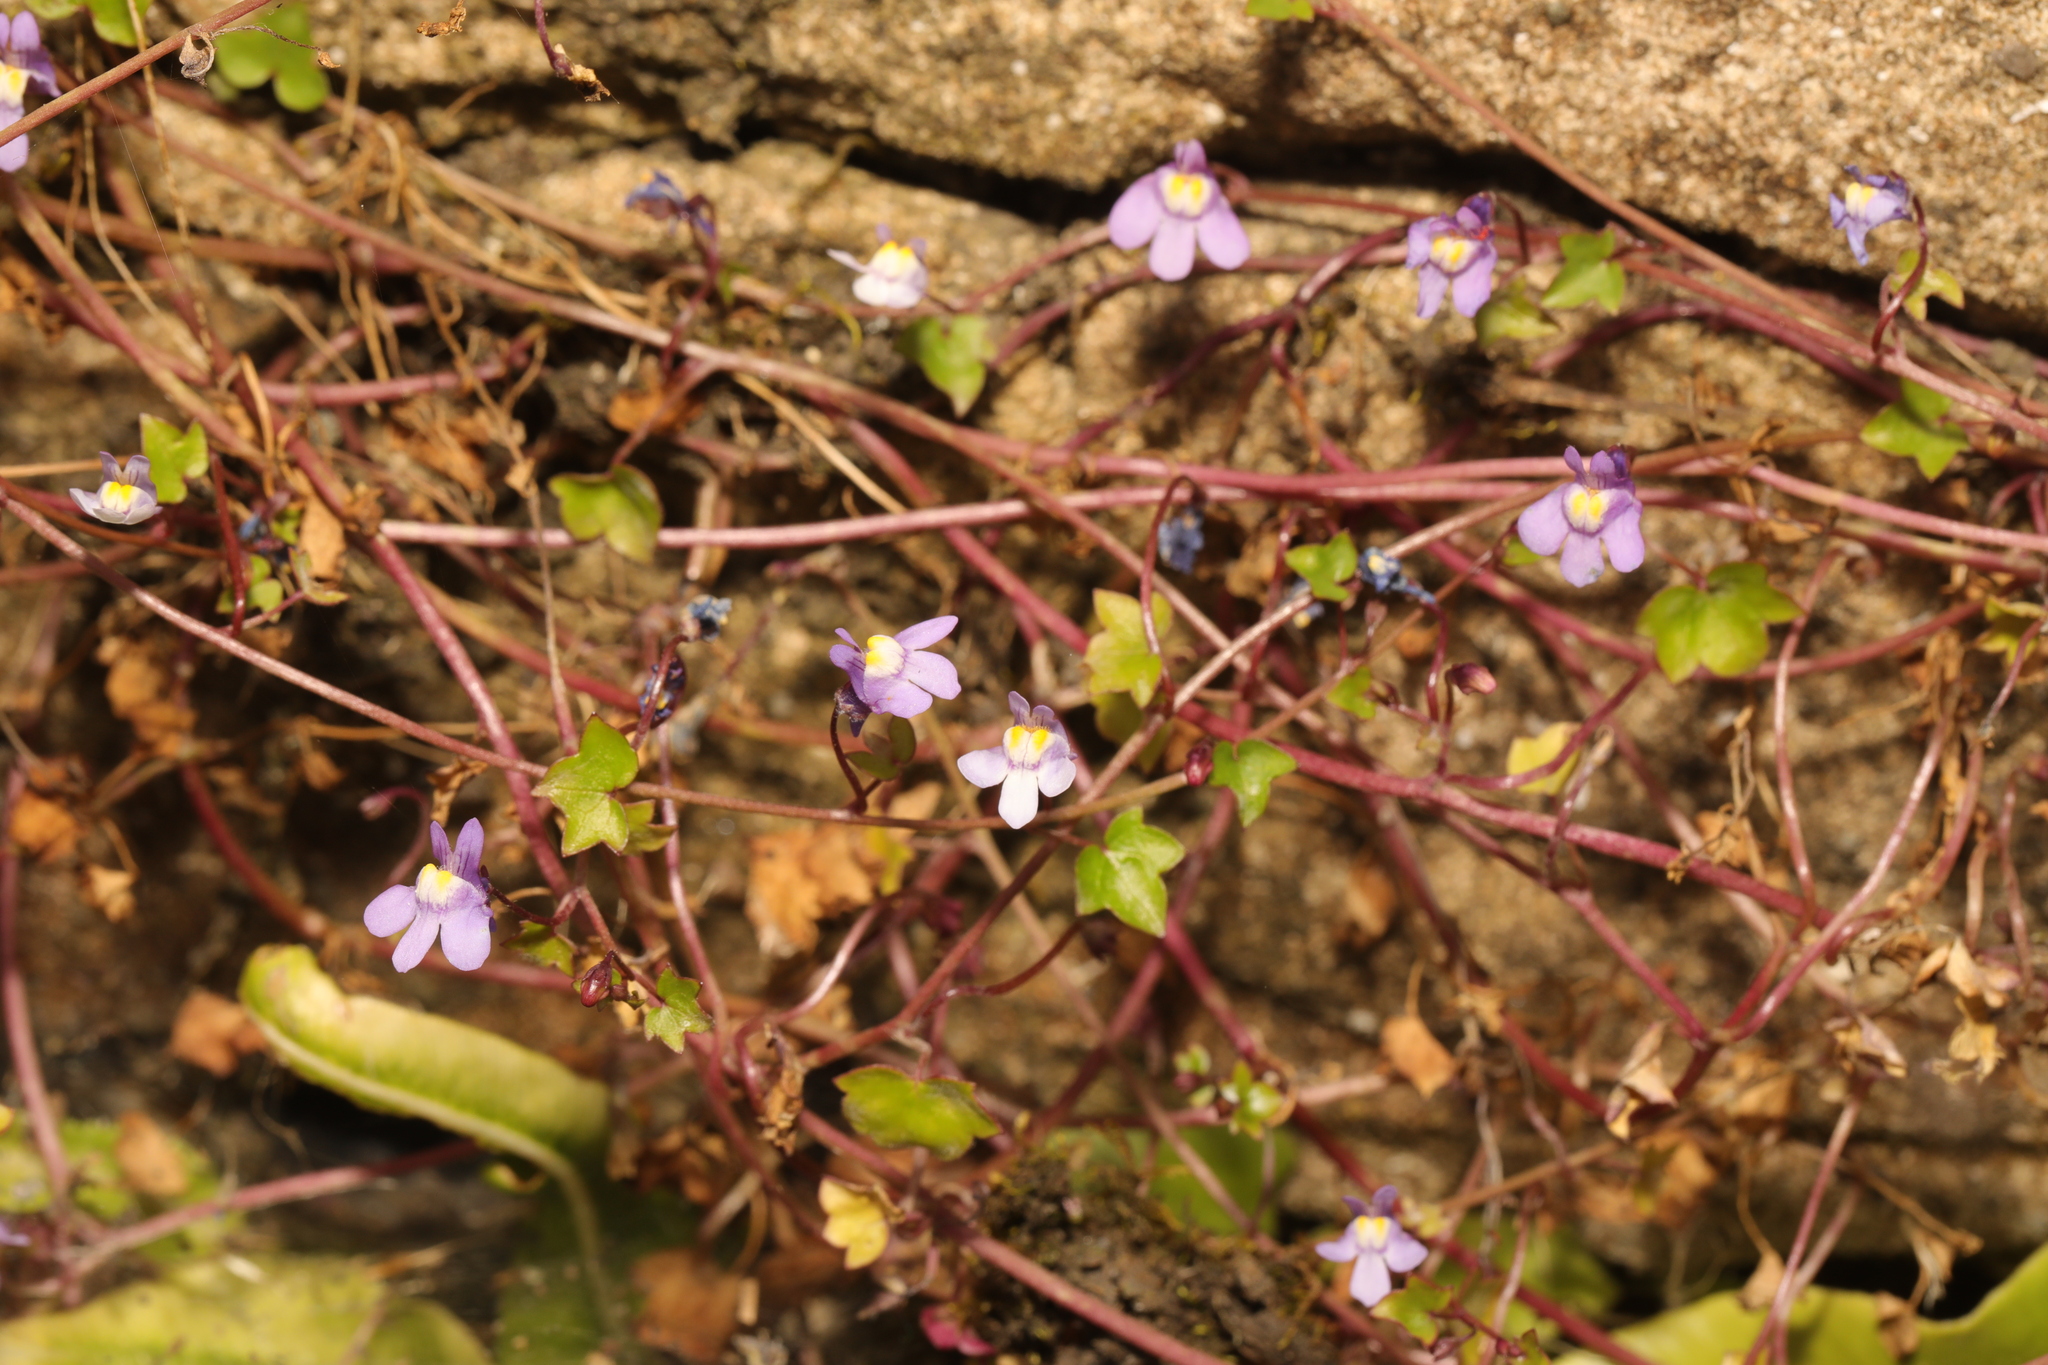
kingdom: Plantae
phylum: Tracheophyta
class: Magnoliopsida
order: Lamiales
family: Plantaginaceae
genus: Cymbalaria
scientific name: Cymbalaria muralis
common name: Ivy-leaved toadflax
